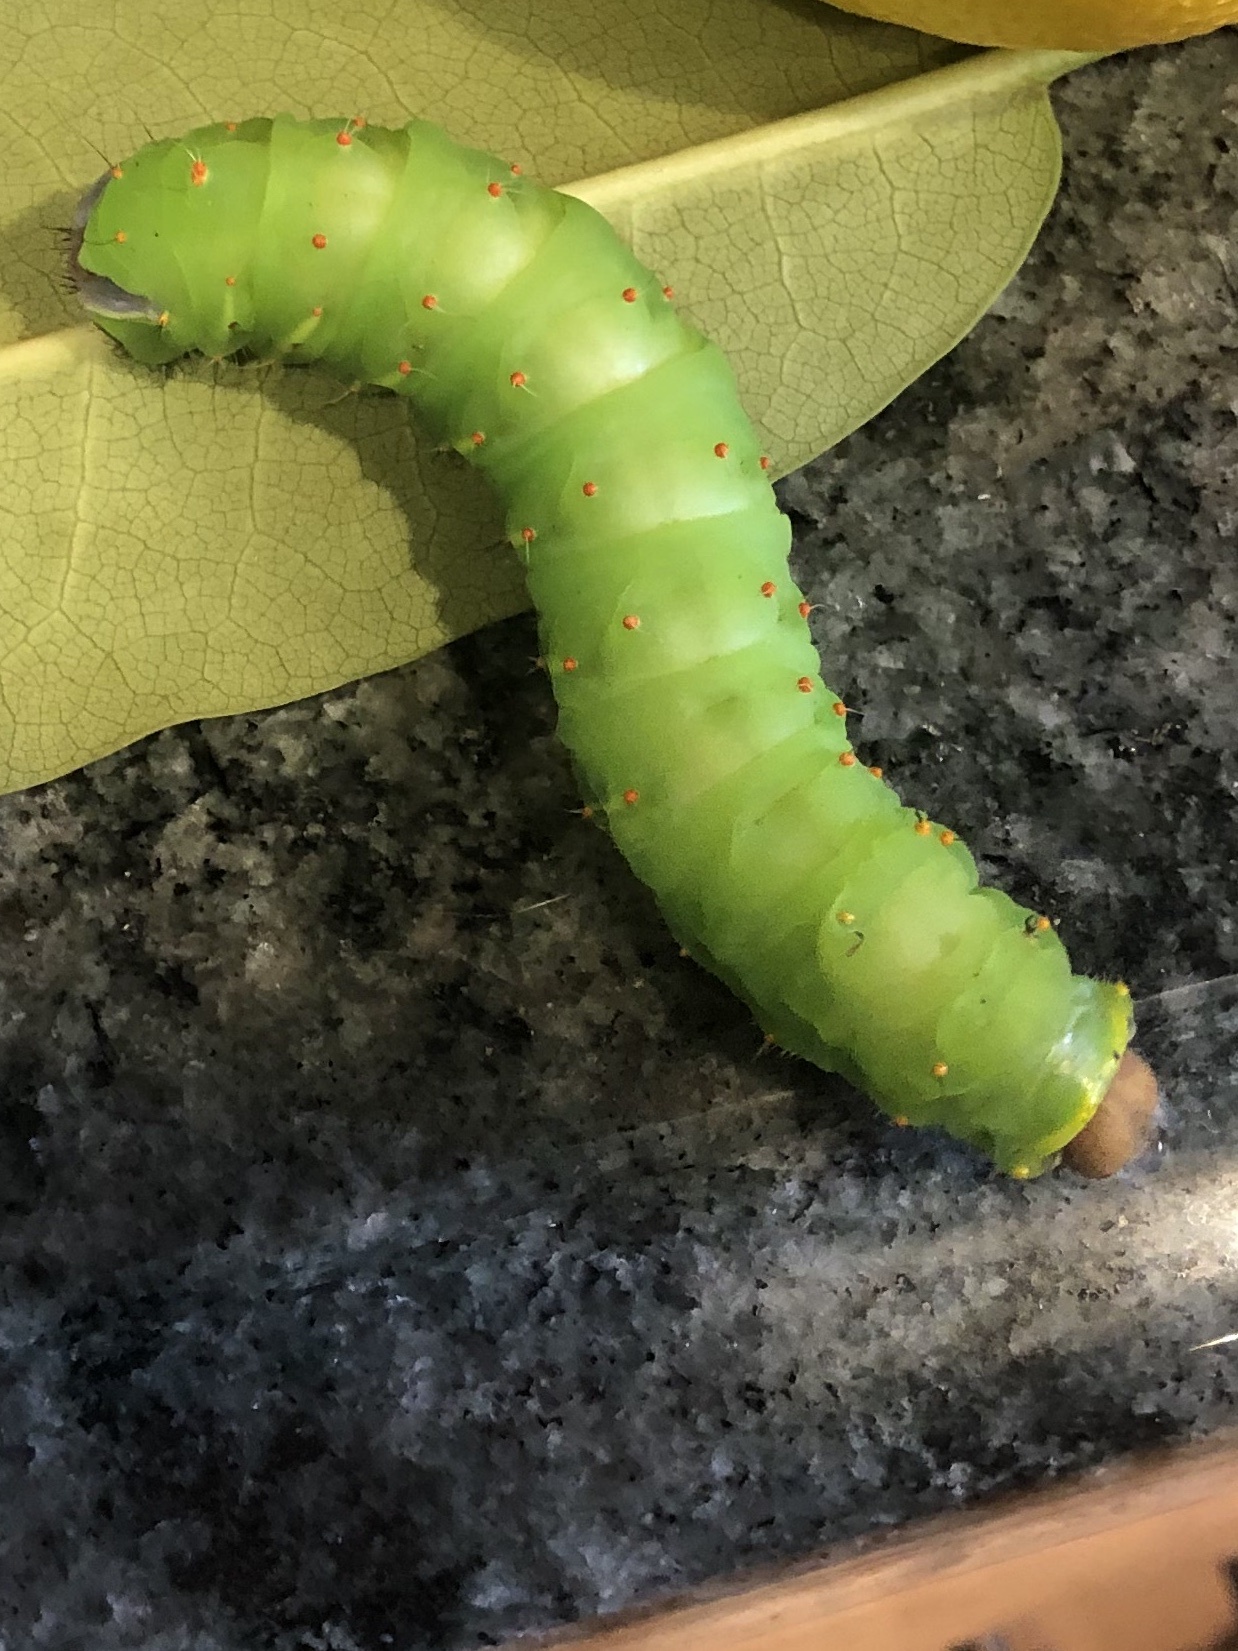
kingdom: Animalia
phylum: Arthropoda
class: Insecta
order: Lepidoptera
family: Saturniidae
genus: Antheraea
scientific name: Antheraea polyphemus
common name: Polyphemus moth
